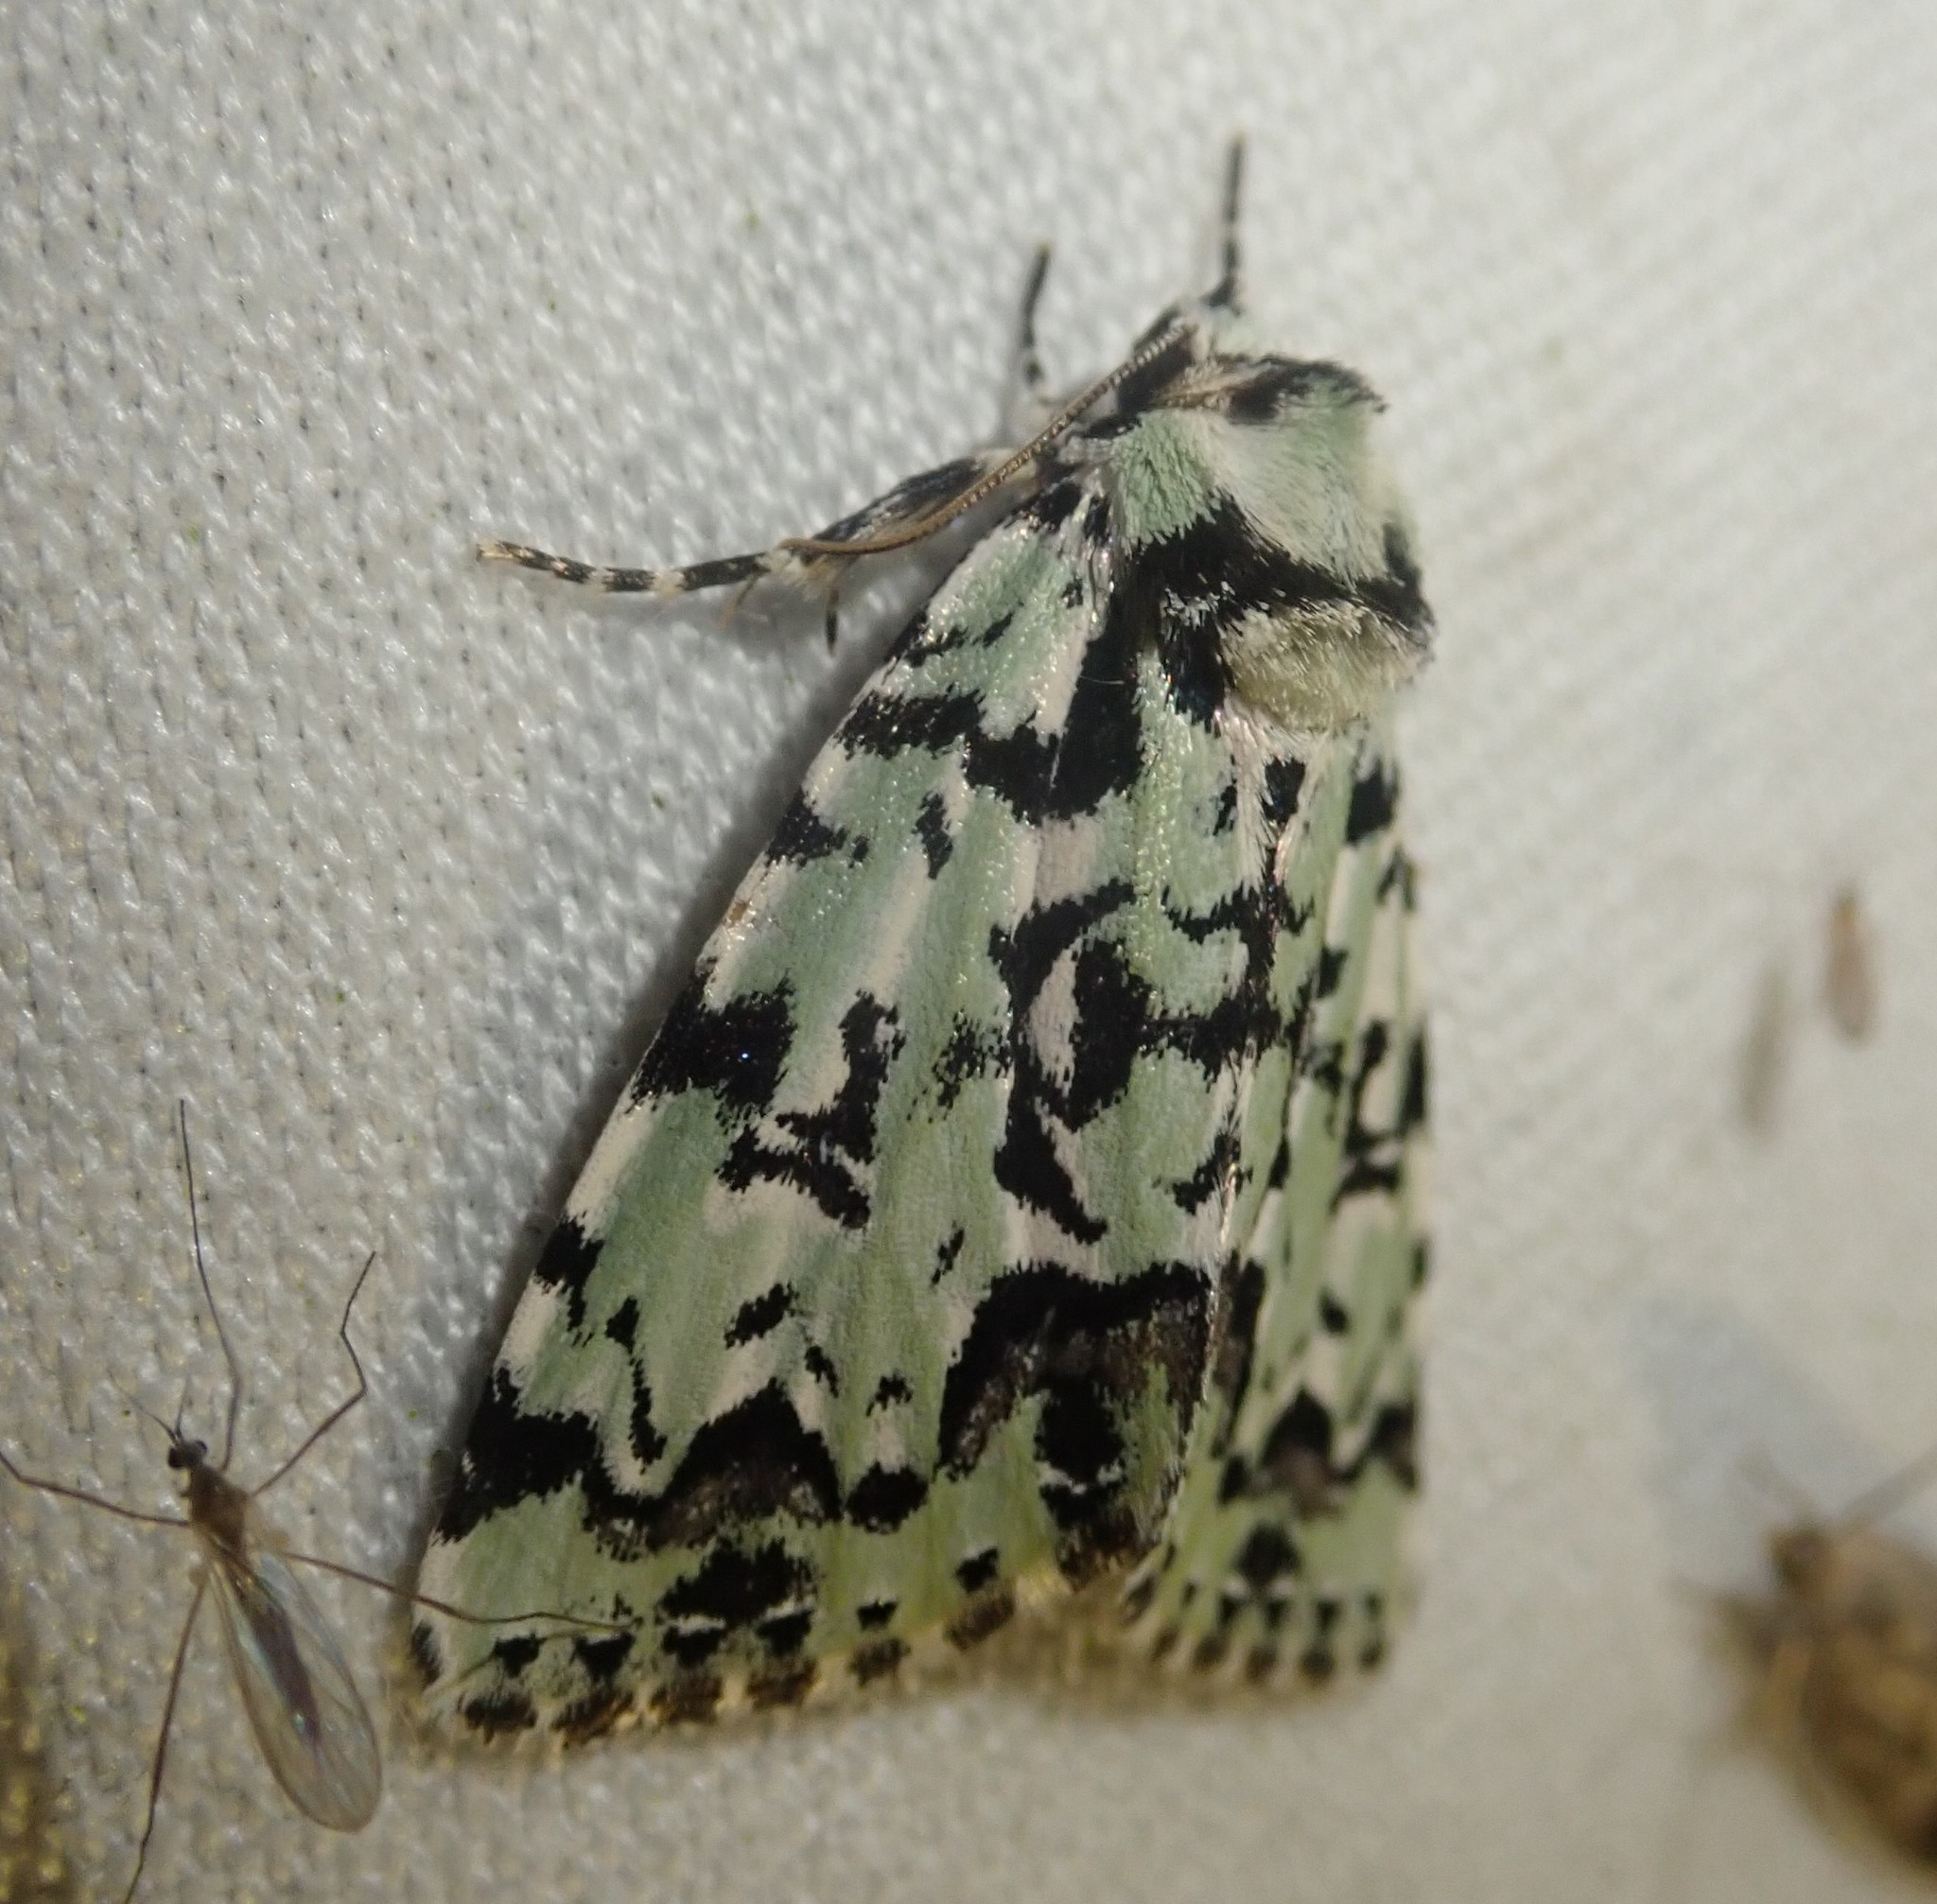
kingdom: Animalia
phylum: Arthropoda
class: Insecta
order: Lepidoptera
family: Noctuidae
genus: Moma
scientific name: Moma alpium
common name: Scarce merveille du jour
